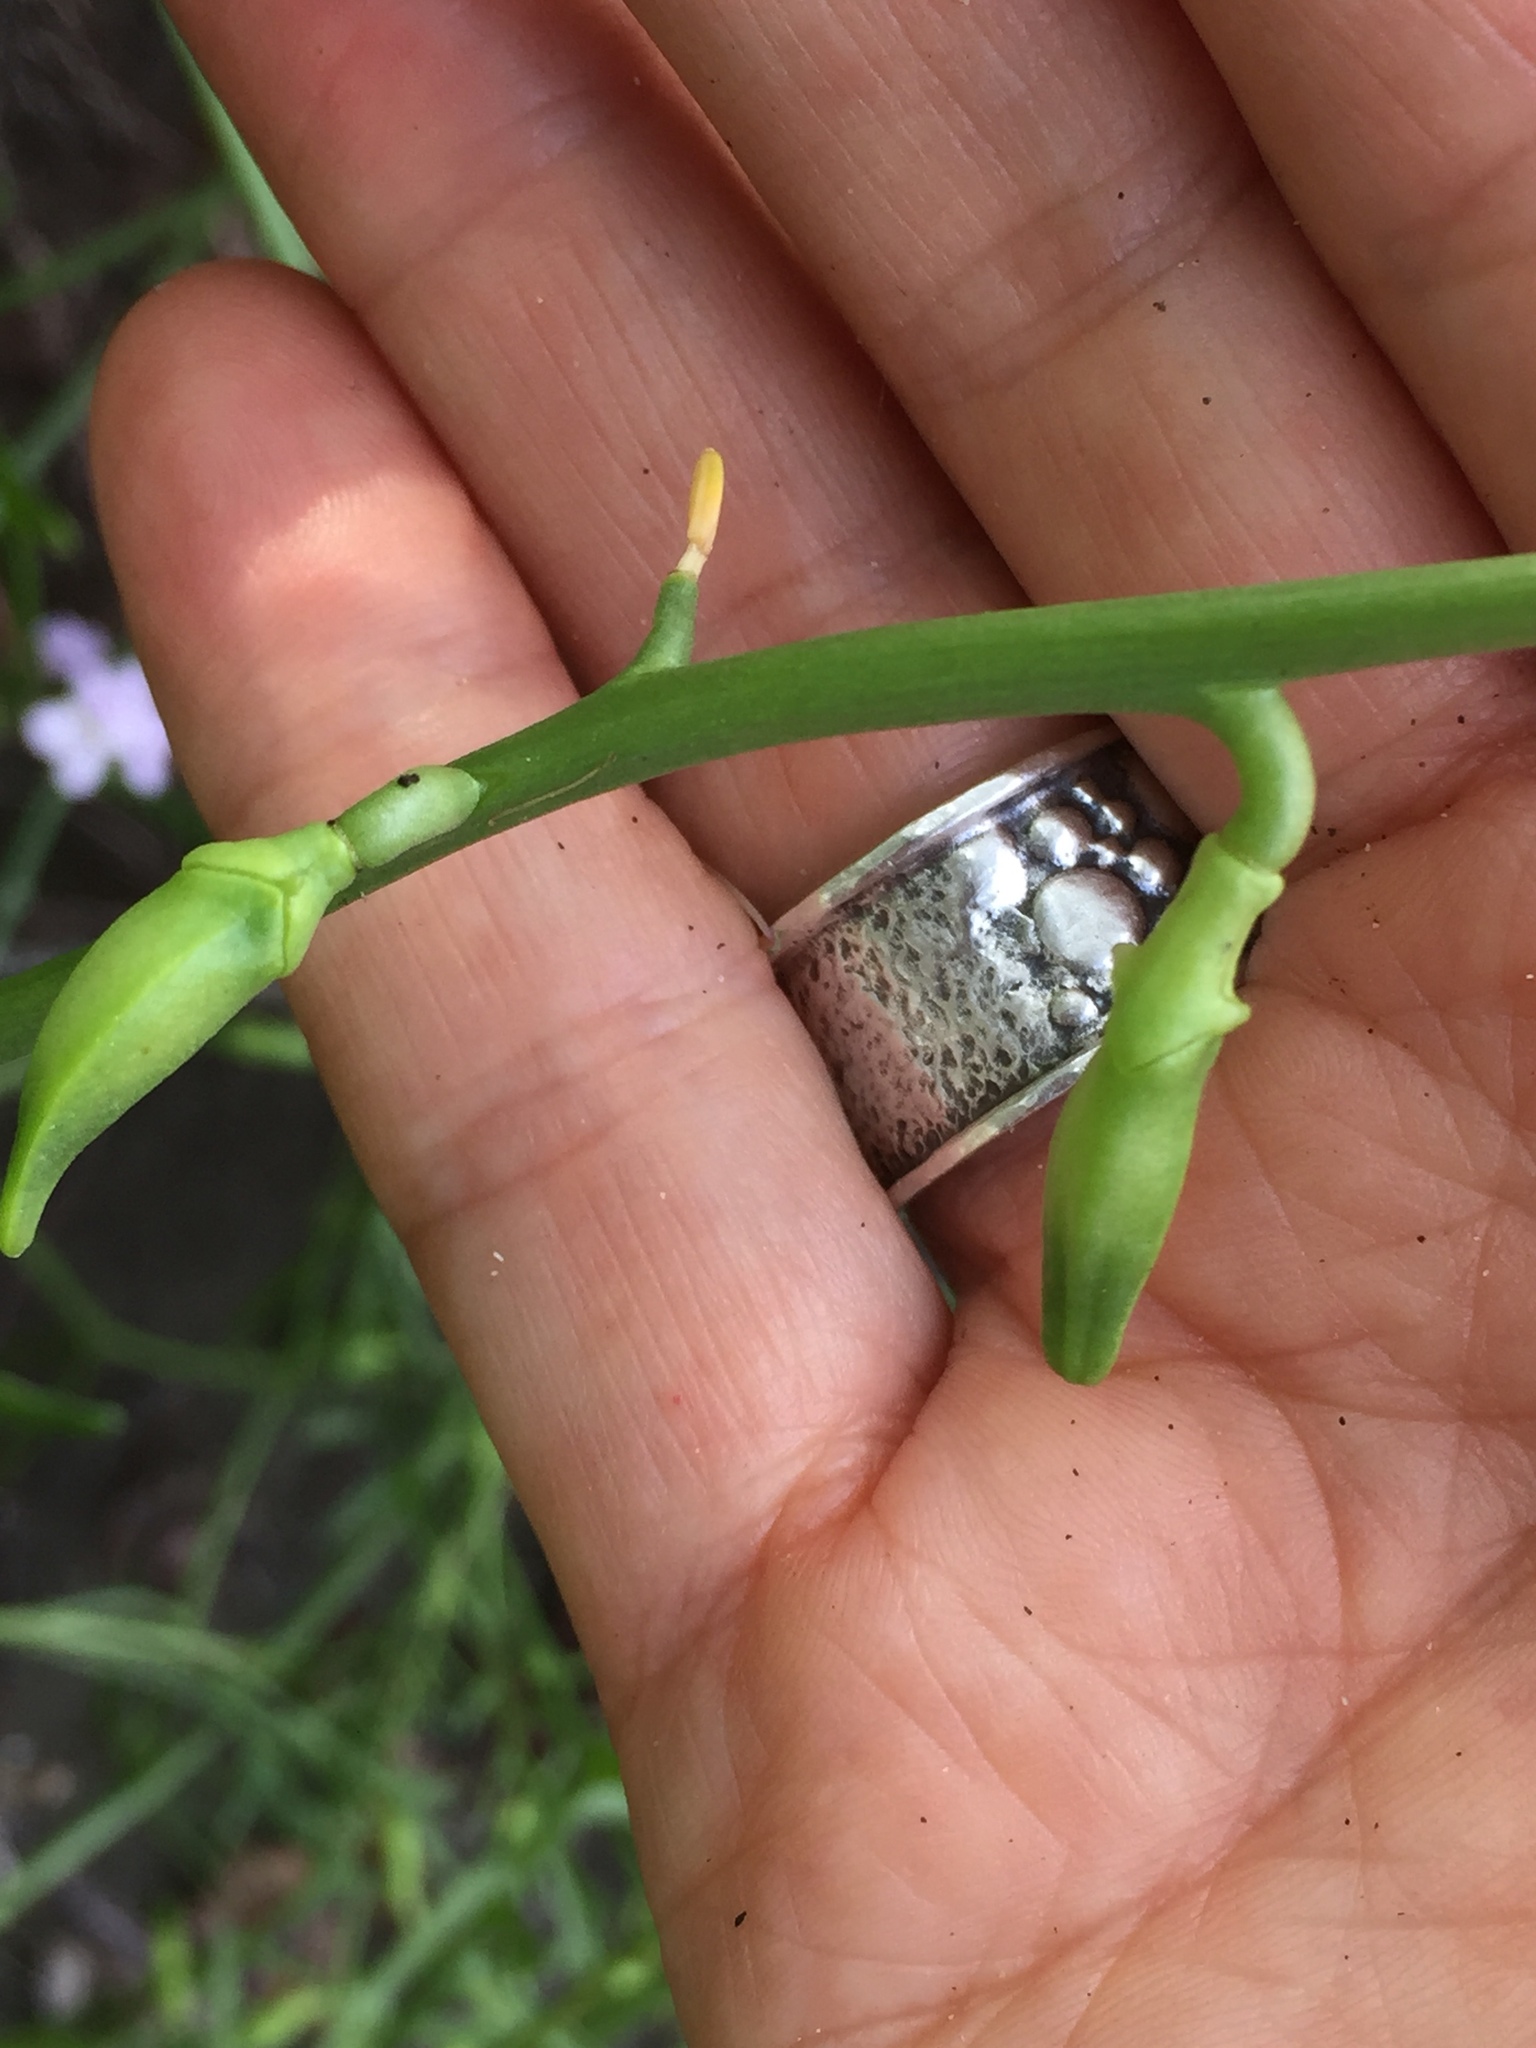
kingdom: Plantae
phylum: Tracheophyta
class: Magnoliopsida
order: Brassicales
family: Brassicaceae
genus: Cakile
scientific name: Cakile maritima
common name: Sea rocket
